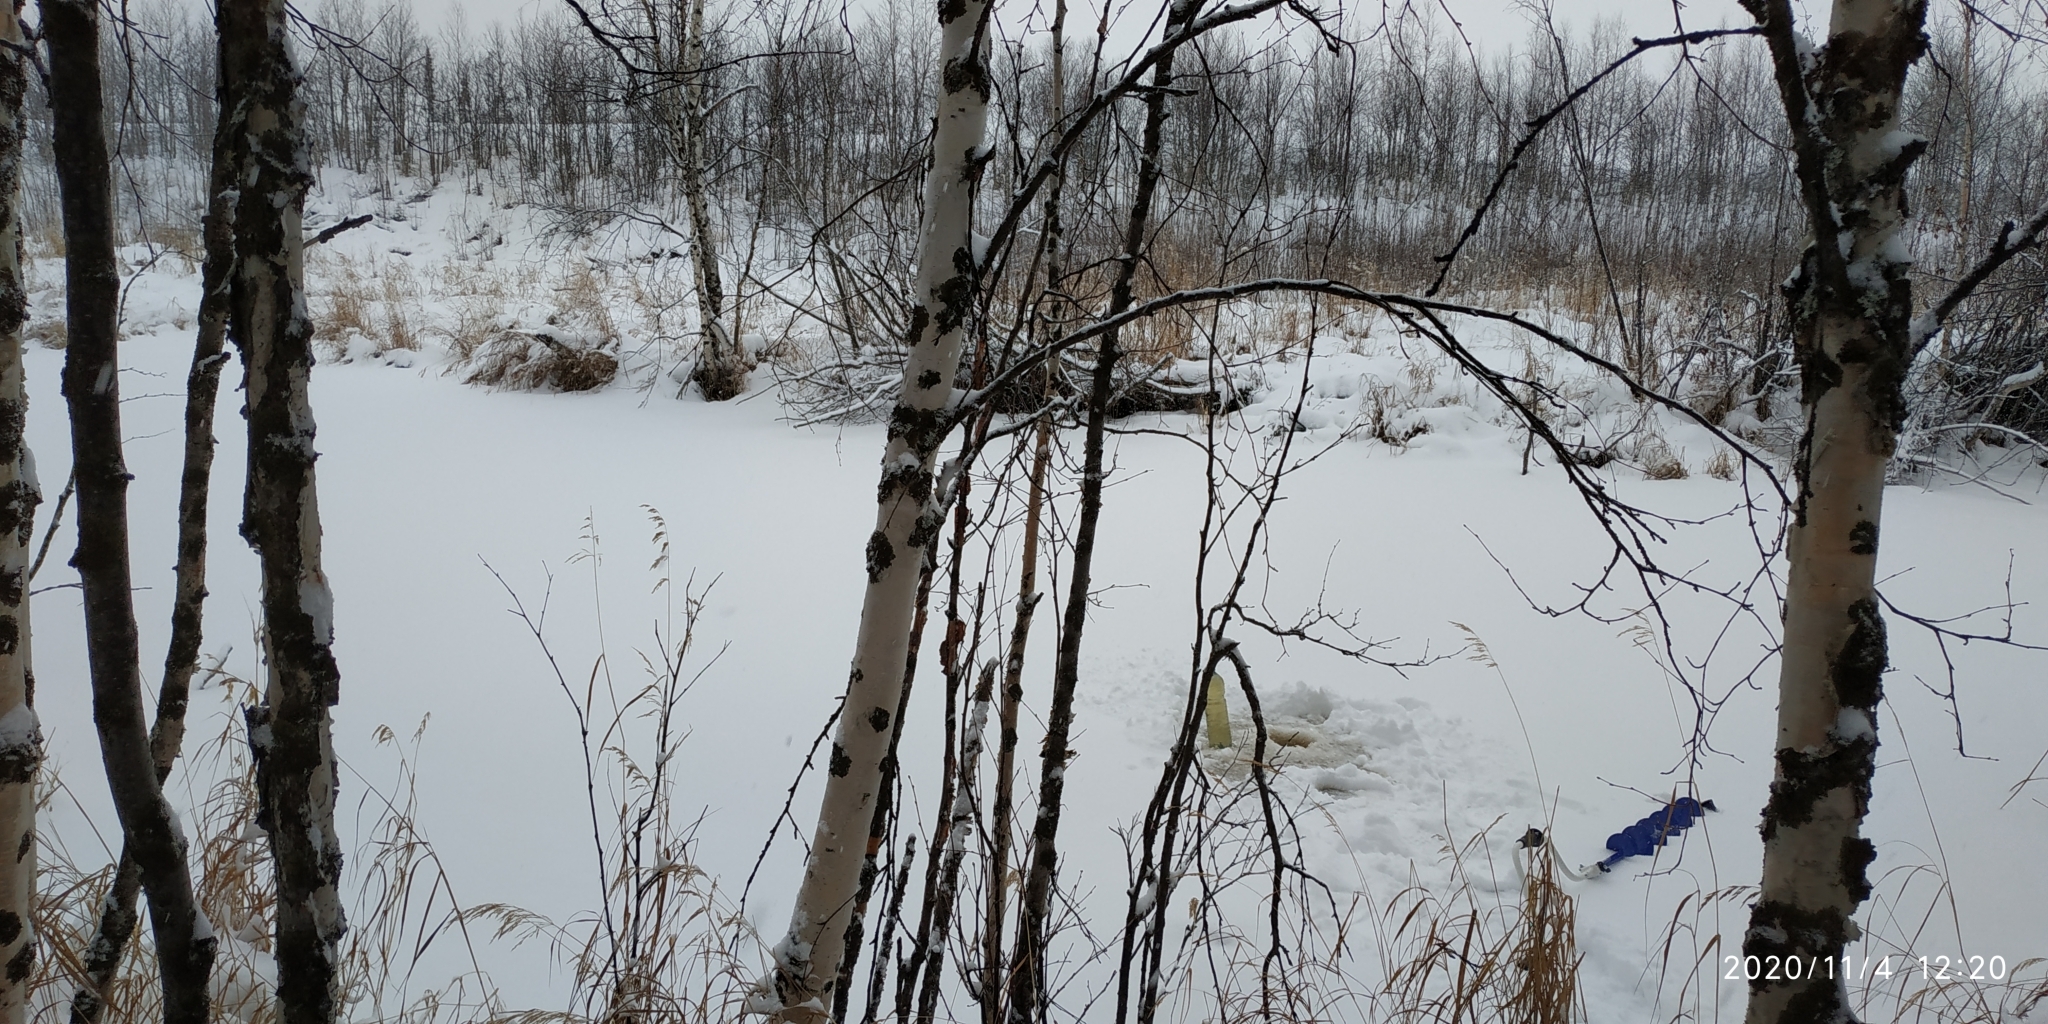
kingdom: Plantae
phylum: Tracheophyta
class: Magnoliopsida
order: Fagales
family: Betulaceae
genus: Betula
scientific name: Betula pubescens
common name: Downy birch
